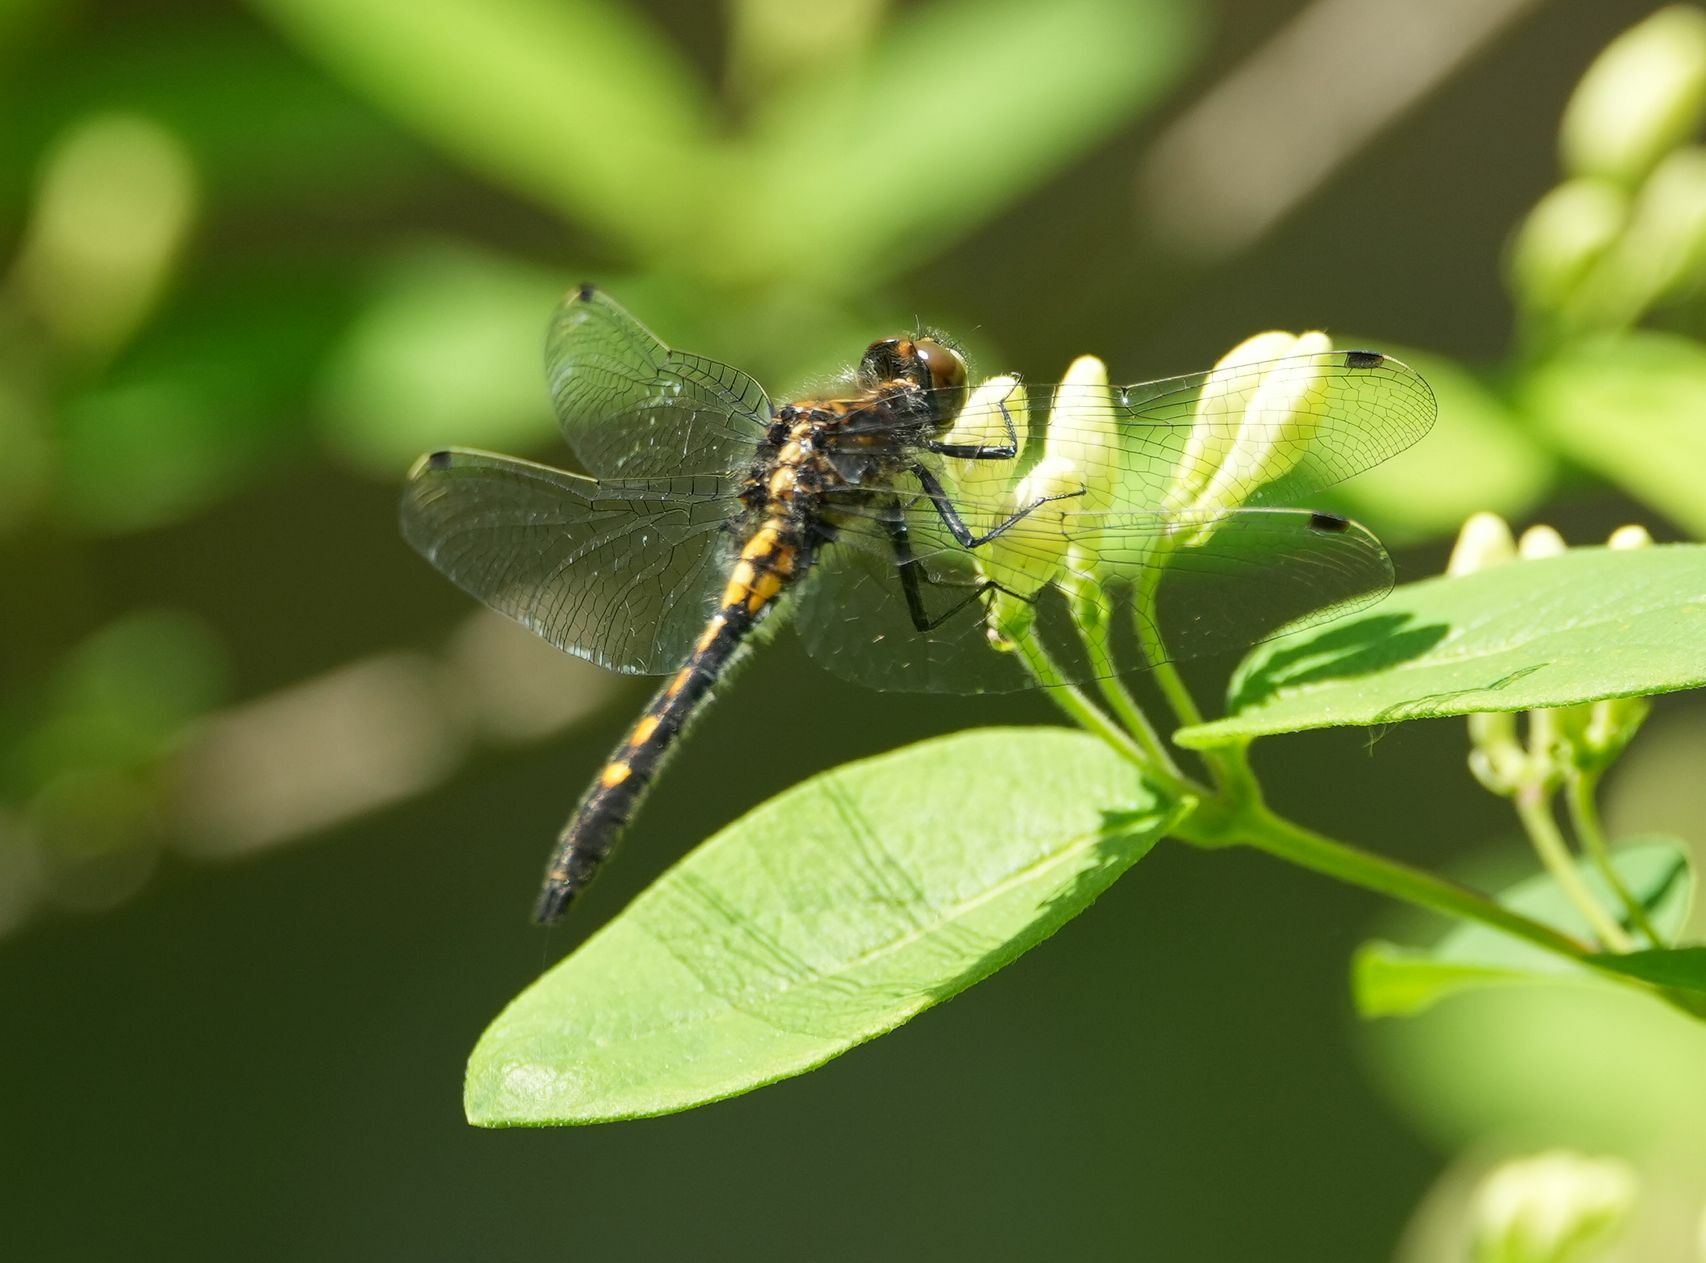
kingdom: Animalia
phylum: Arthropoda
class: Insecta
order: Odonata
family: Libellulidae
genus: Leucorrhinia
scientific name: Leucorrhinia intacta
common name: Dot-tailed whiteface
